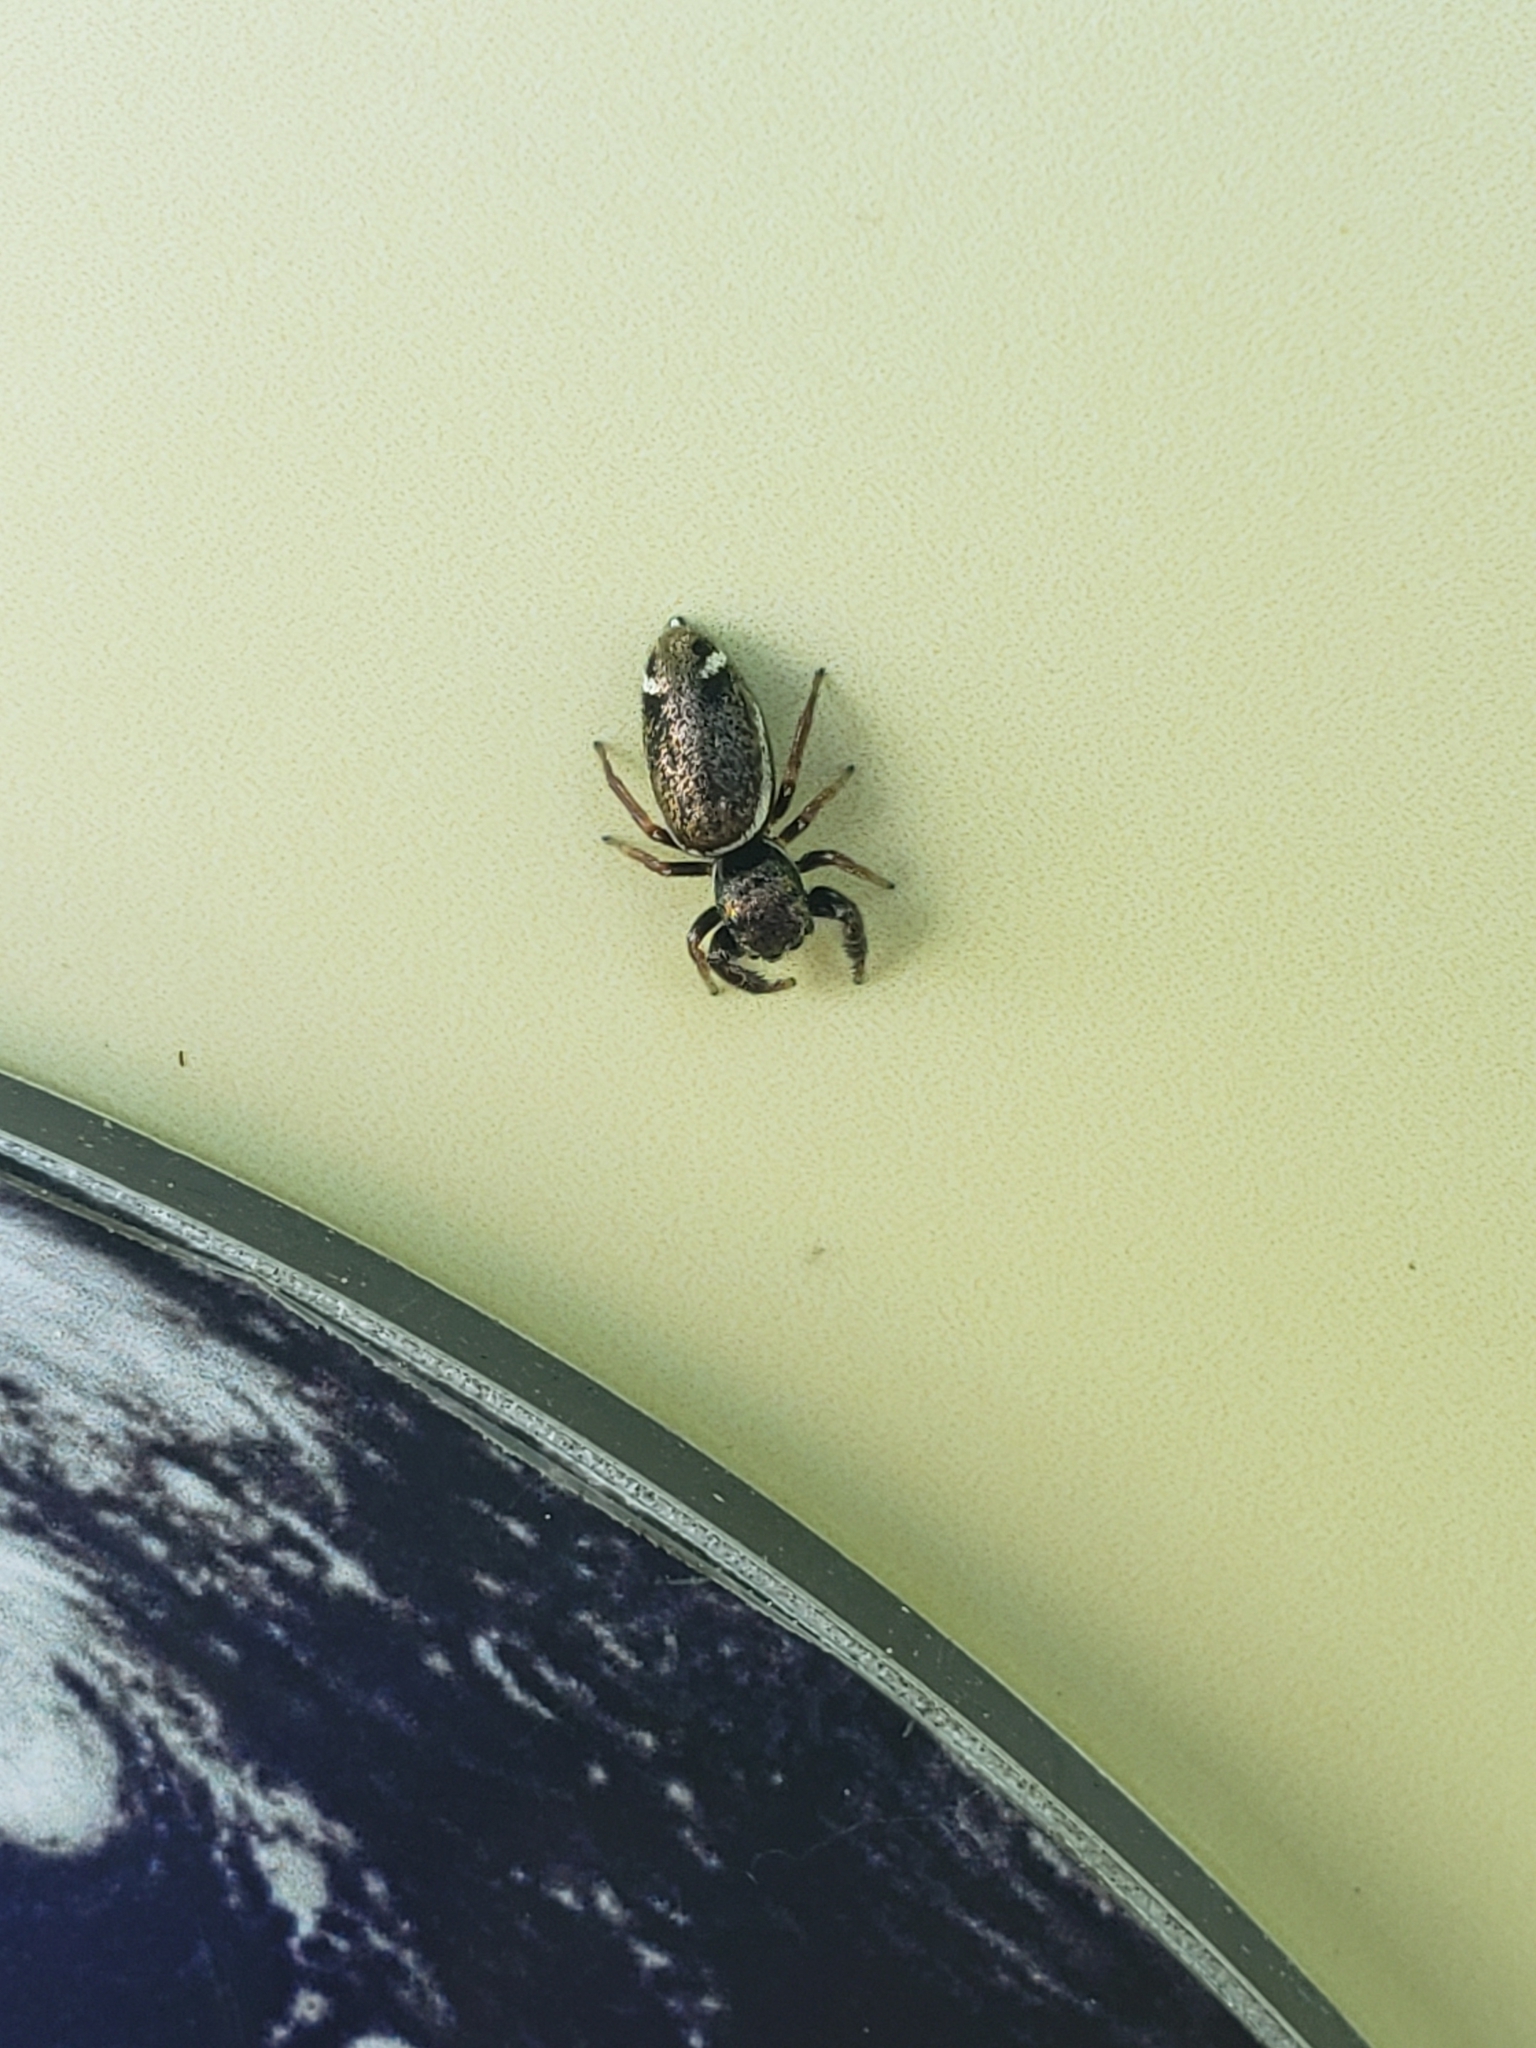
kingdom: Animalia
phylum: Arthropoda
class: Arachnida
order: Araneae
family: Salticidae
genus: Sassacus
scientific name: Sassacus vitis
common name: Jumping spiders
